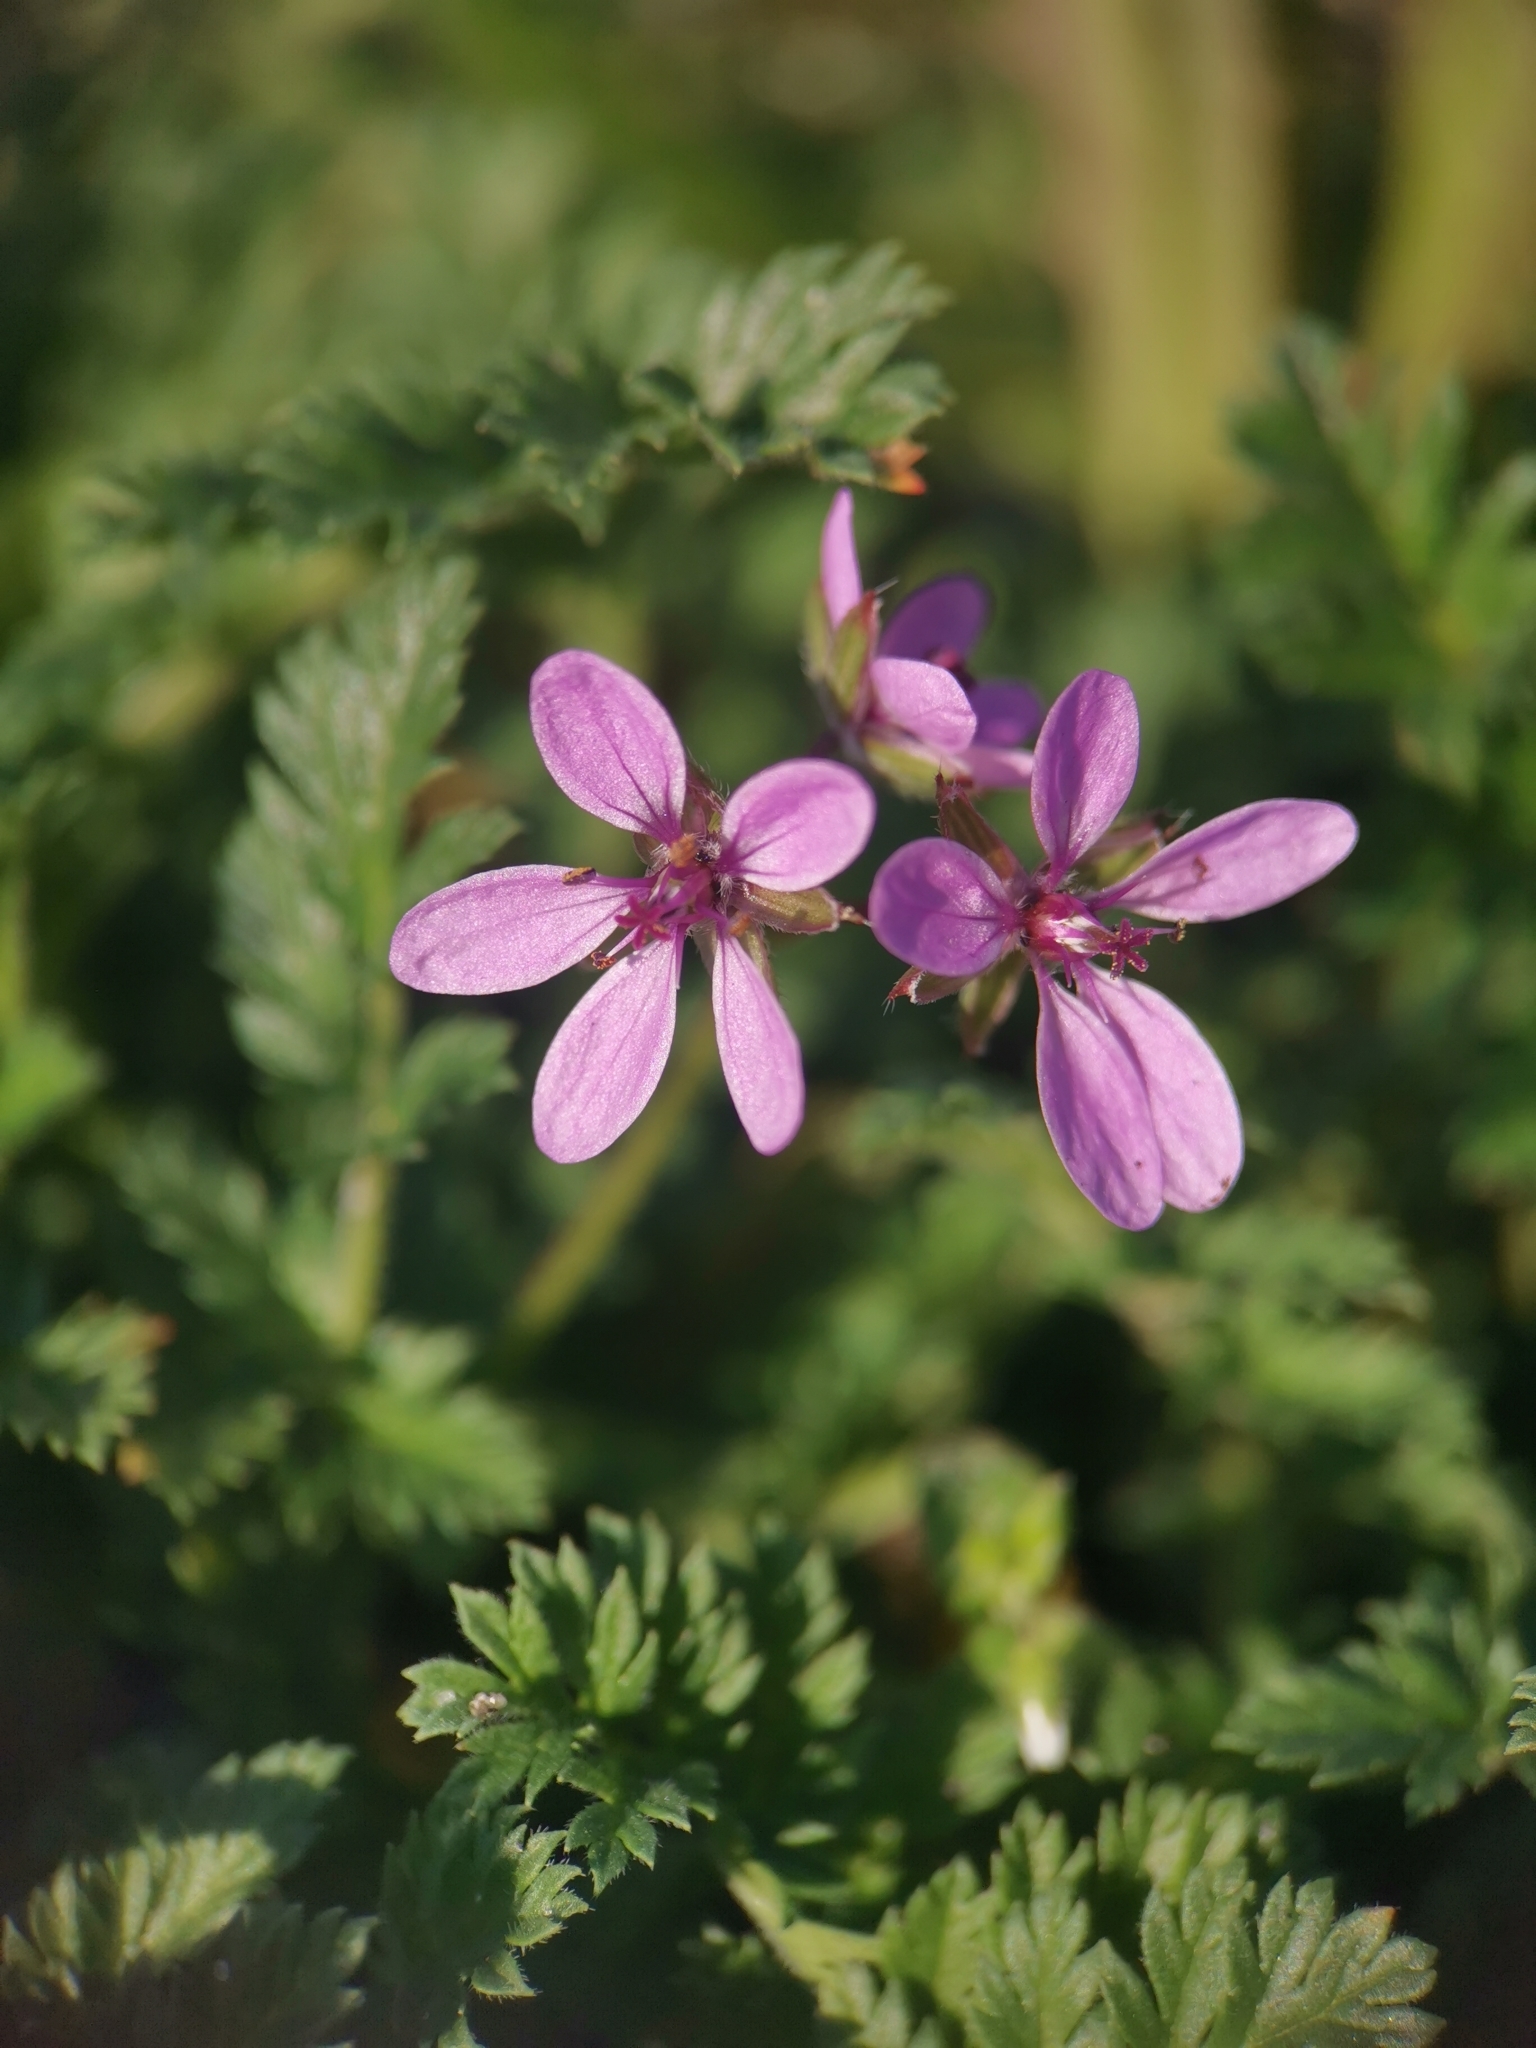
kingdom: Plantae
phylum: Tracheophyta
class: Magnoliopsida
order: Geraniales
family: Geraniaceae
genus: Erodium
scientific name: Erodium cicutarium
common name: Common stork's-bill
